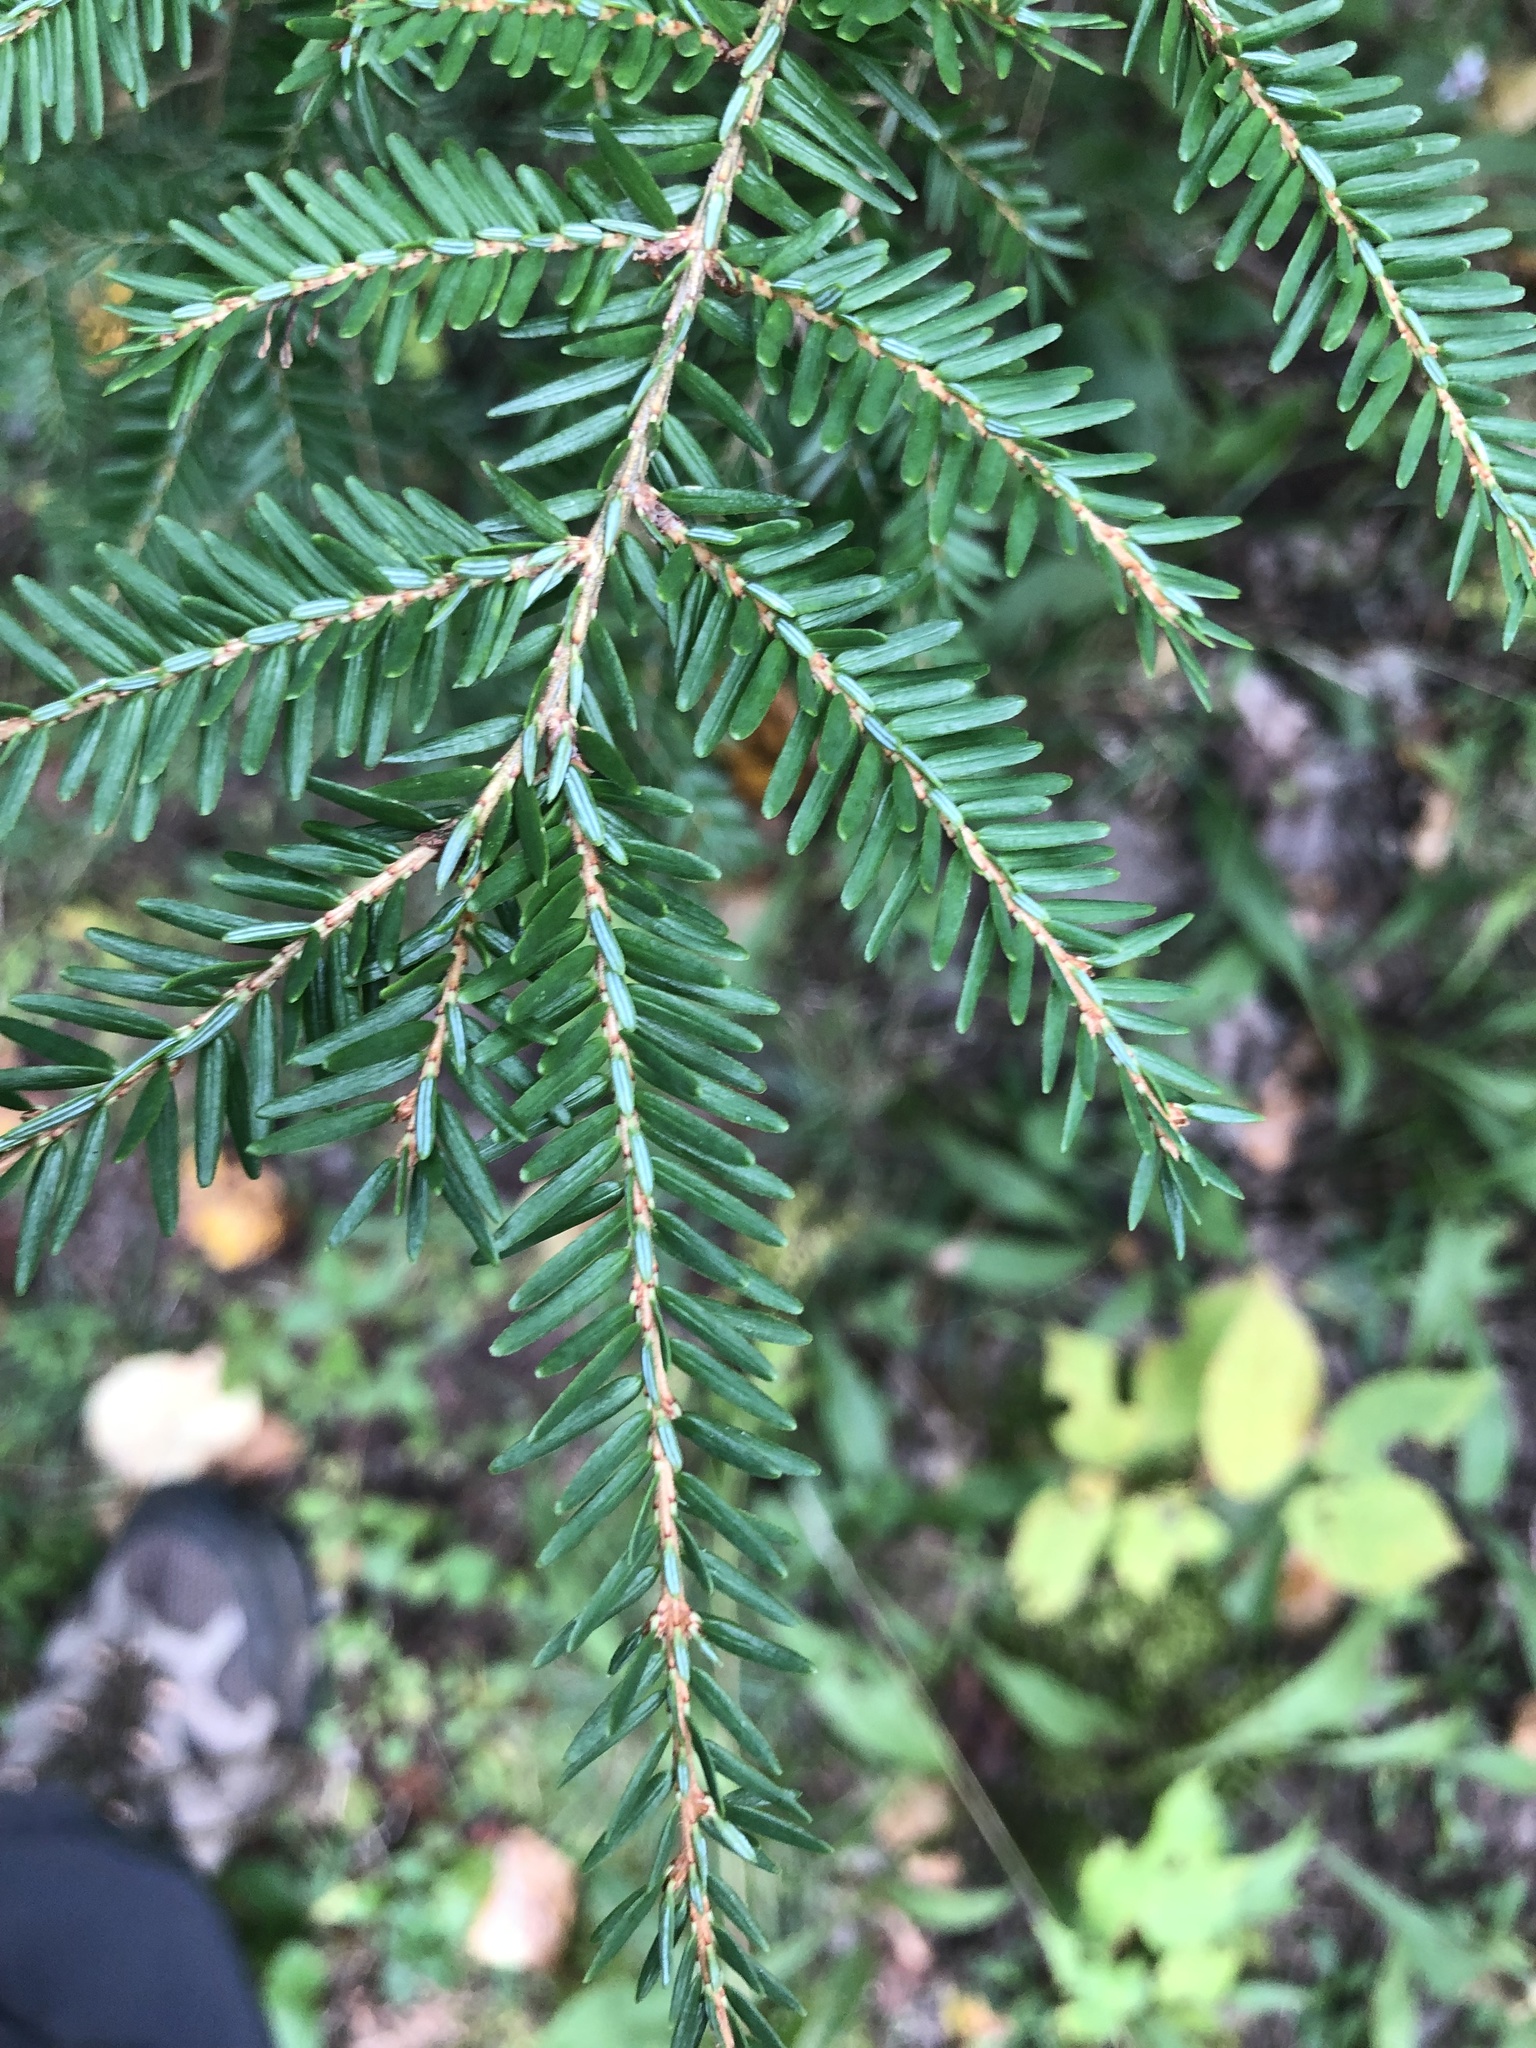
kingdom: Plantae
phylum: Tracheophyta
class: Pinopsida
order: Pinales
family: Pinaceae
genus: Tsuga
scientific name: Tsuga canadensis
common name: Eastern hemlock
